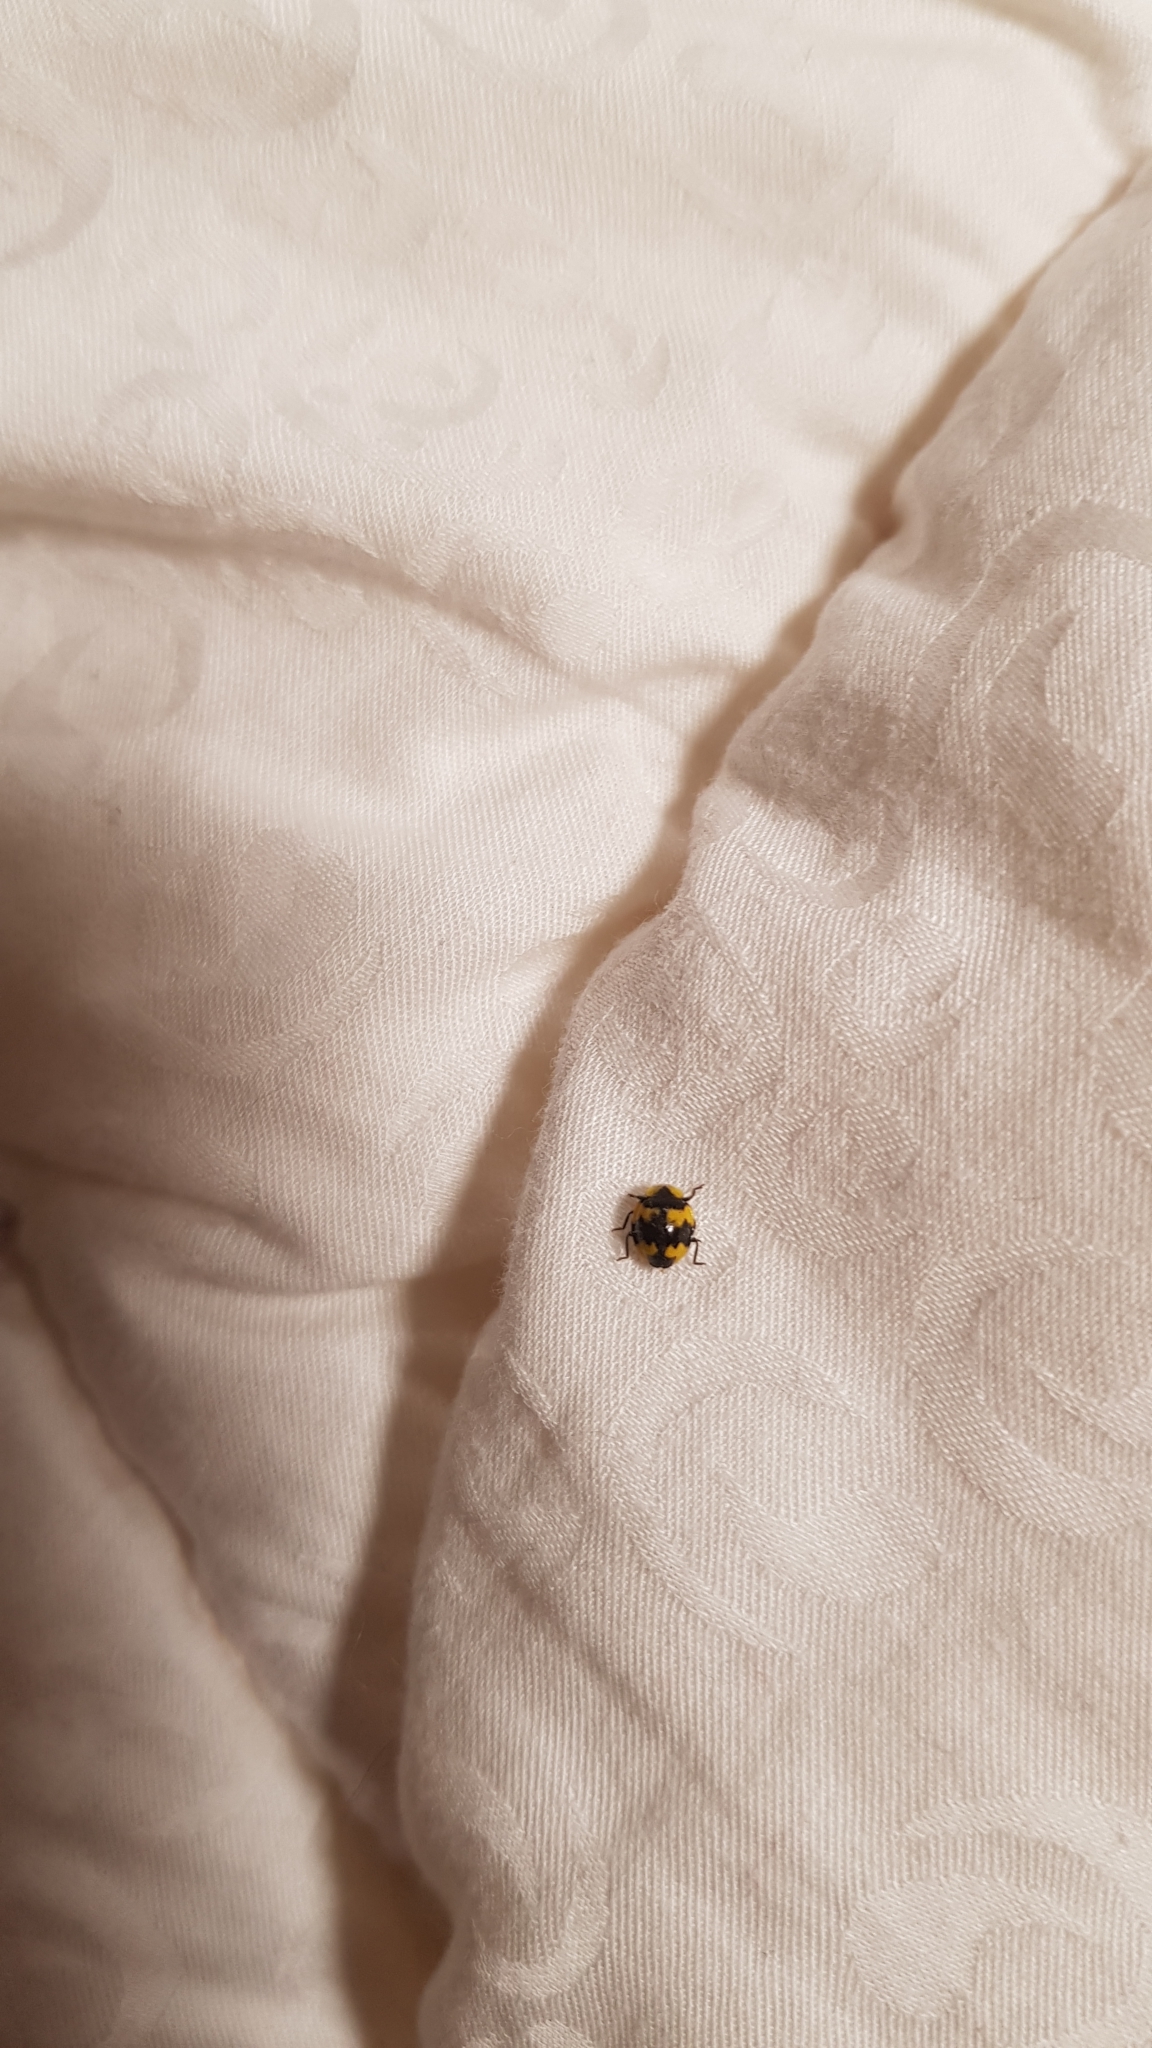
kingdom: Animalia
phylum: Arthropoda
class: Insecta
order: Coleoptera
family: Coccinellidae
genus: Illeis
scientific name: Illeis galbula
